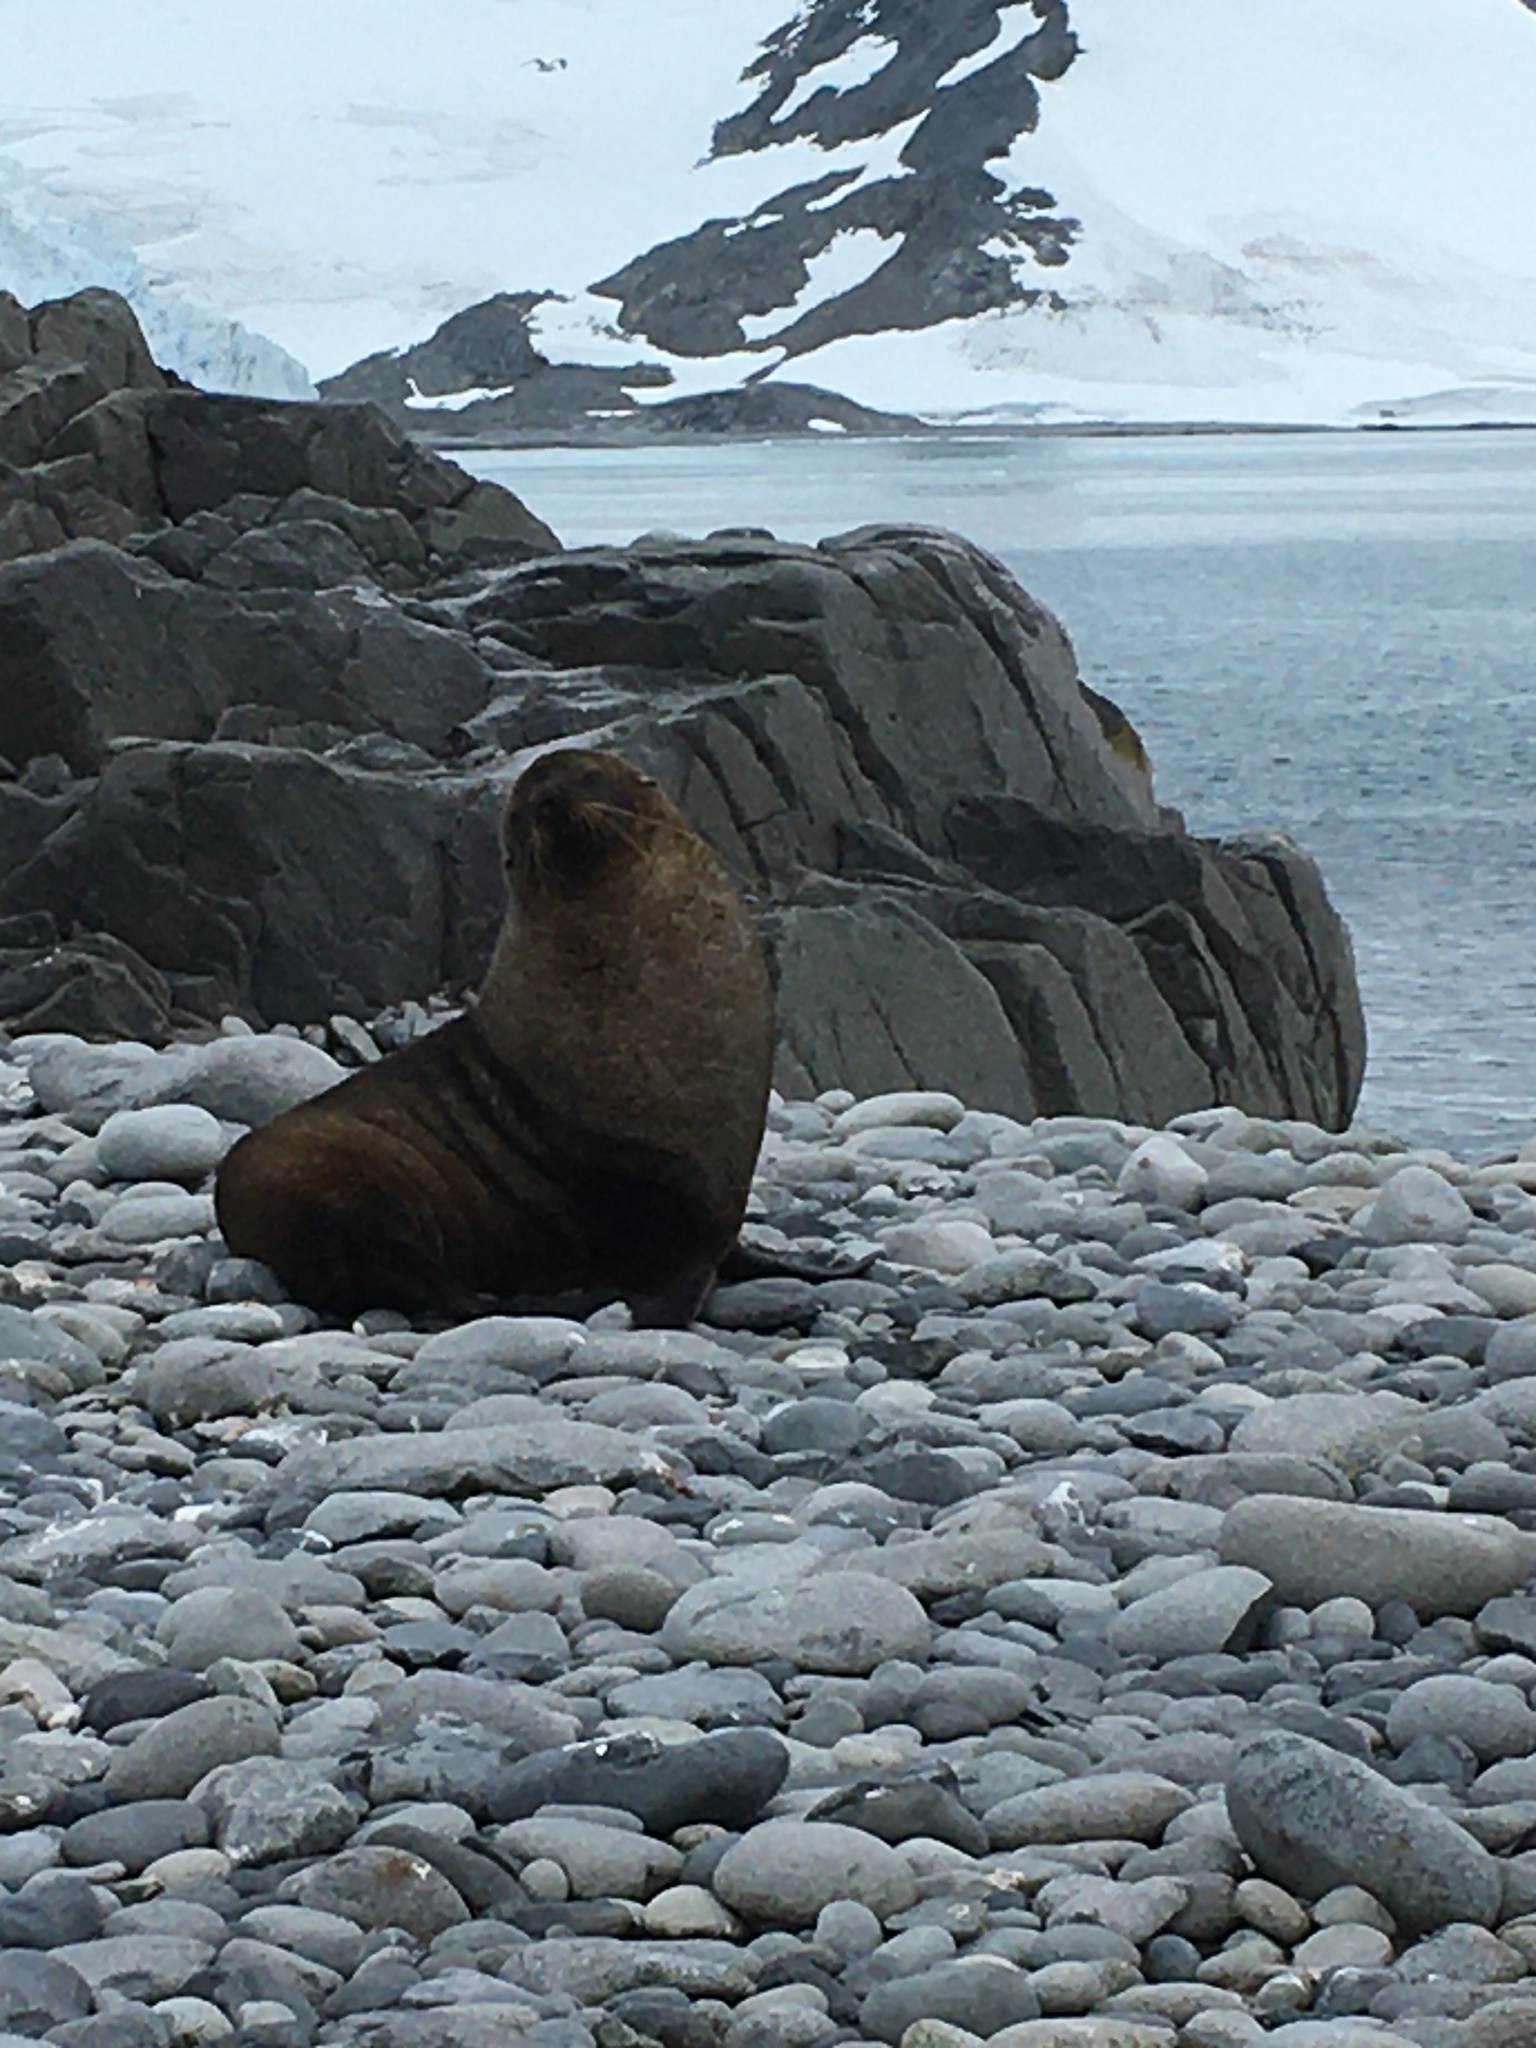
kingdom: Animalia
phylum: Chordata
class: Mammalia
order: Carnivora
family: Otariidae
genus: Arctocephalus
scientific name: Arctocephalus gazella
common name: Antarctic fur seal
